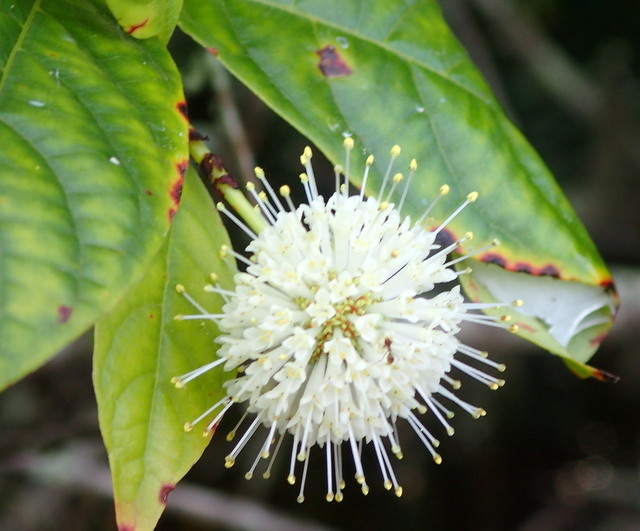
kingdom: Plantae
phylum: Tracheophyta
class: Magnoliopsida
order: Gentianales
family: Rubiaceae
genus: Cephalanthus
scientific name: Cephalanthus occidentalis
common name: Button-willow
